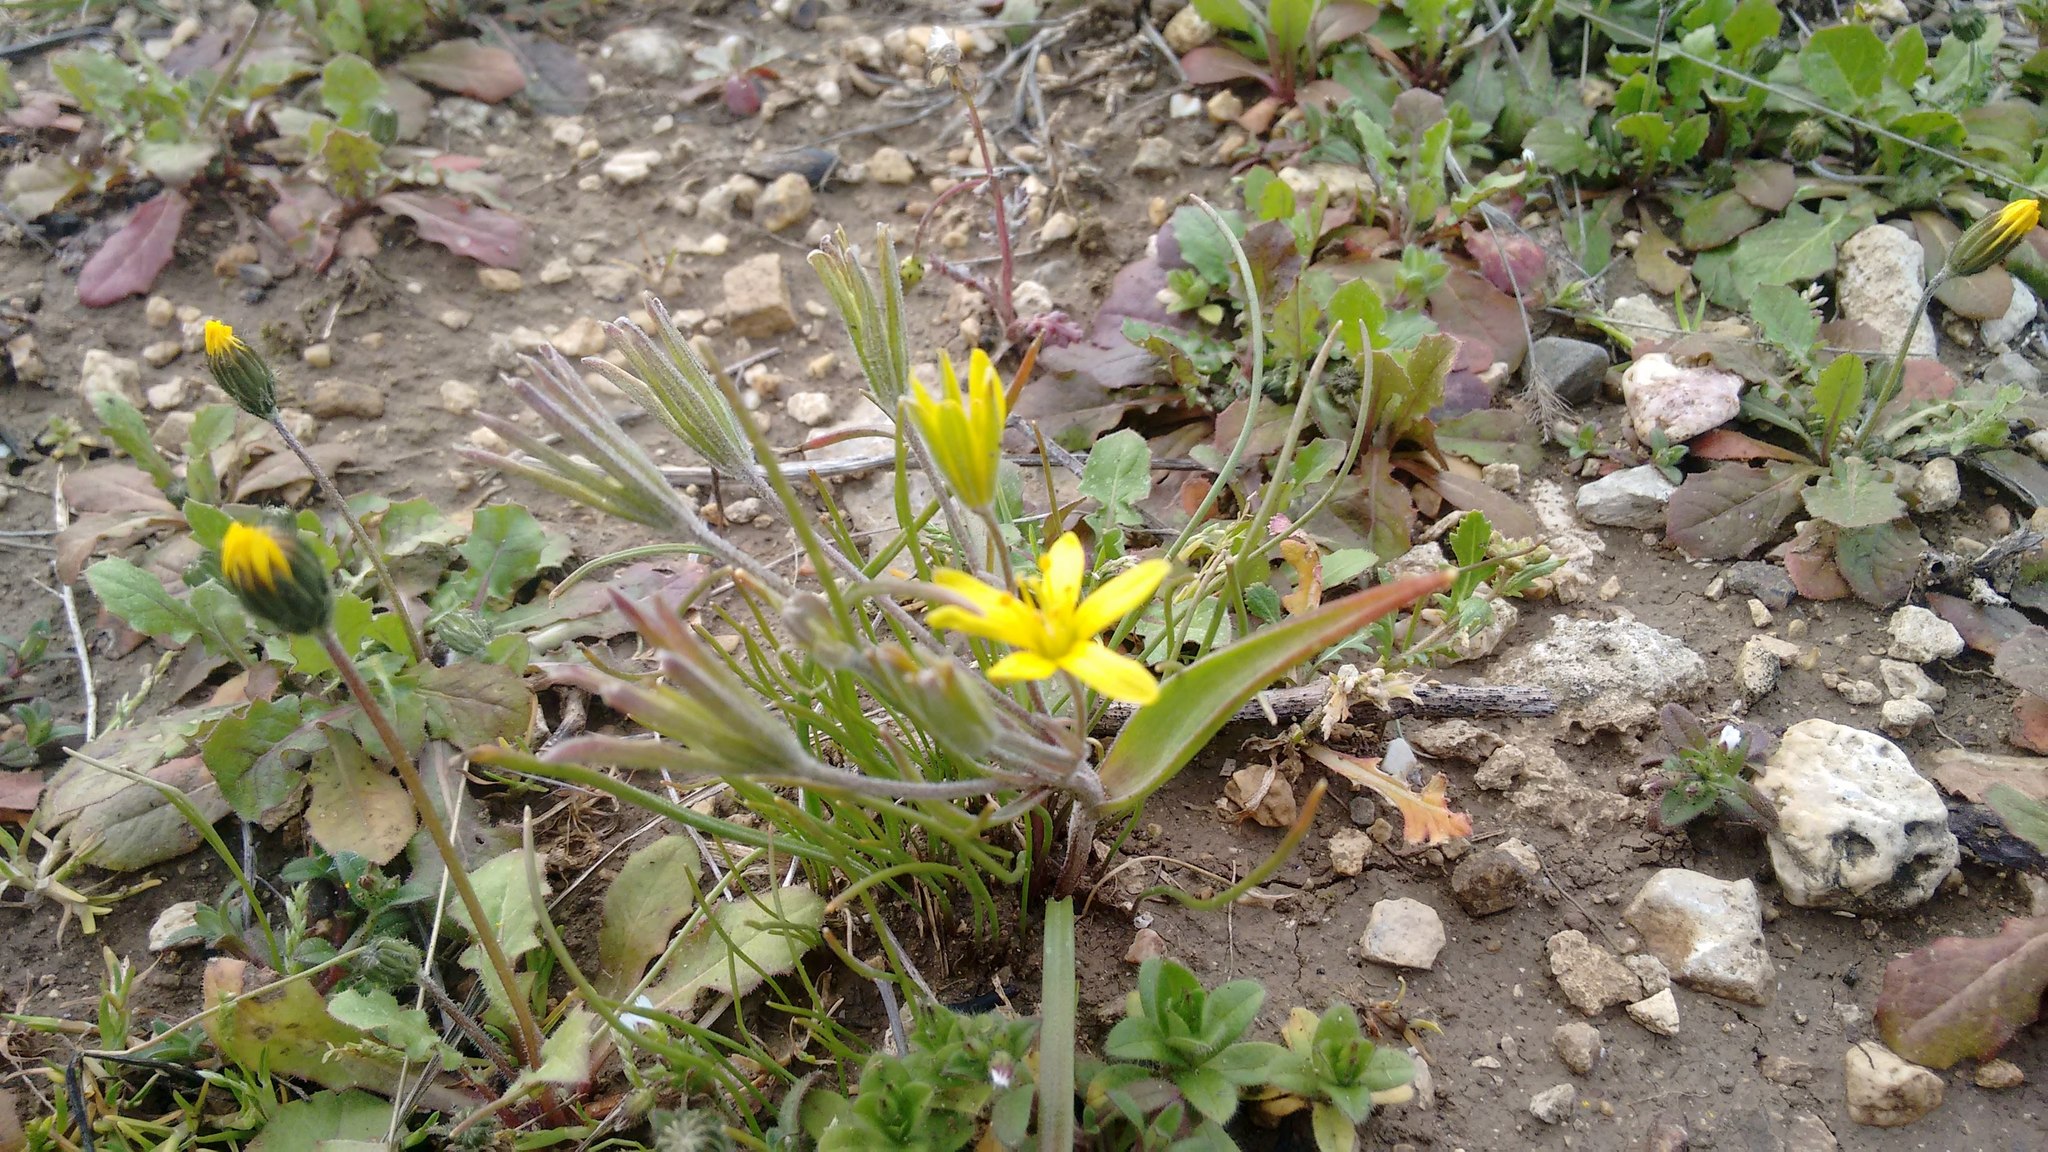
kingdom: Plantae
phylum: Tracheophyta
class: Liliopsida
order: Liliales
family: Liliaceae
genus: Gagea
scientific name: Gagea villosa
